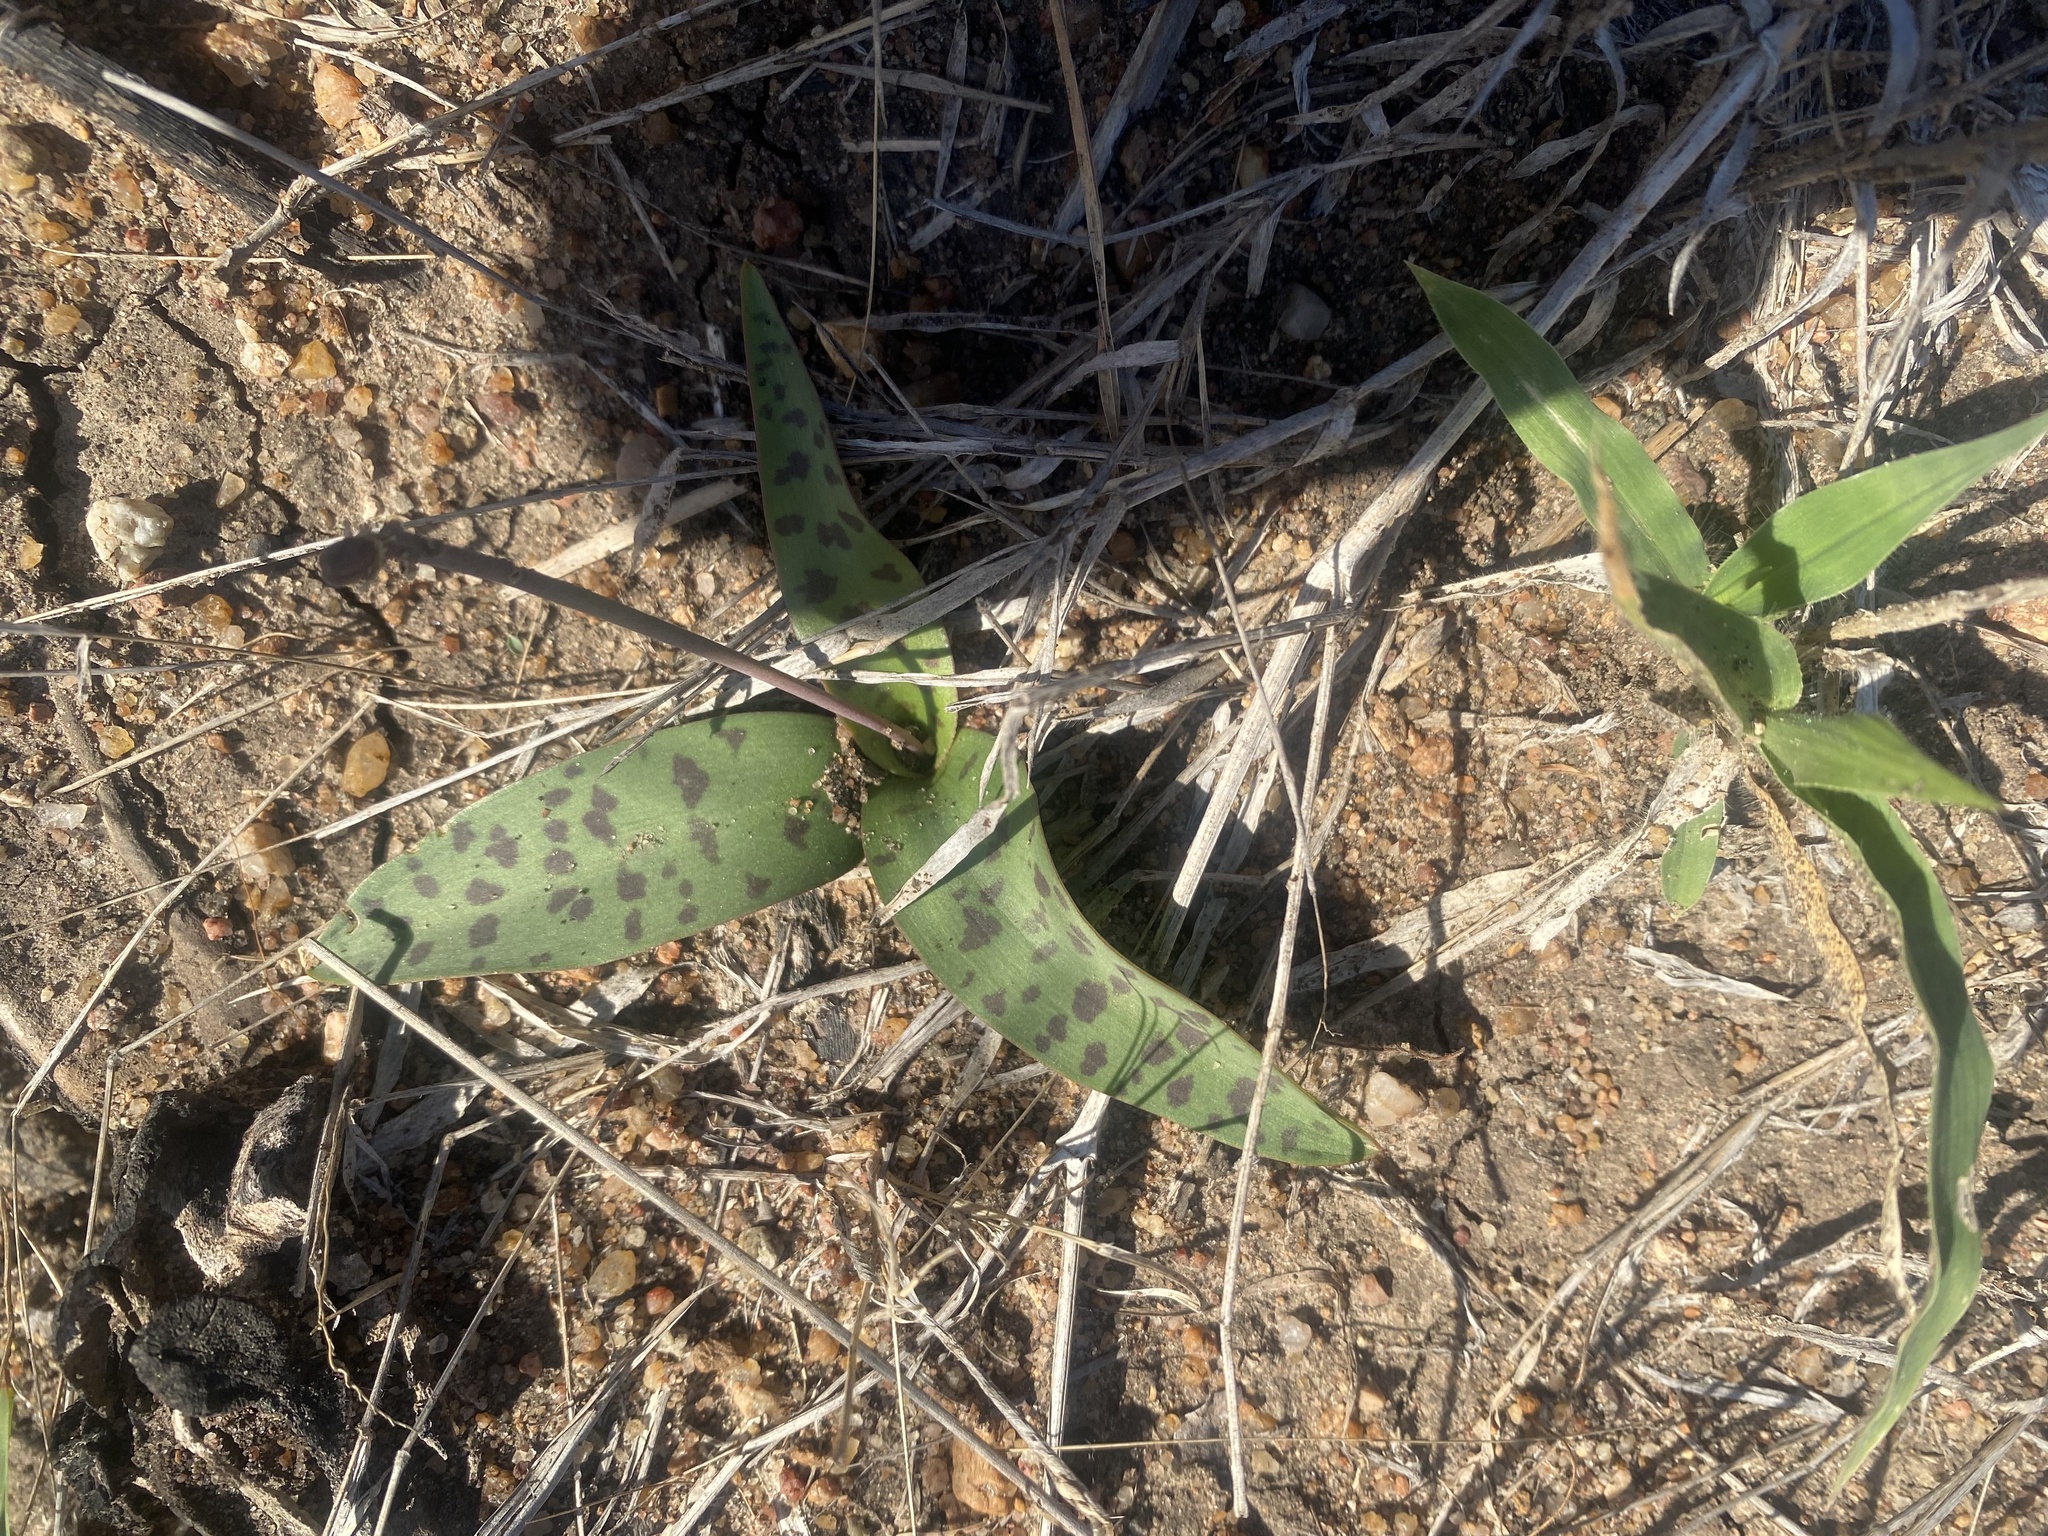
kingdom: Plantae
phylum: Tracheophyta
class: Liliopsida
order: Asparagales
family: Asparagaceae
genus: Ledebouria
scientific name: Ledebouria luteola
